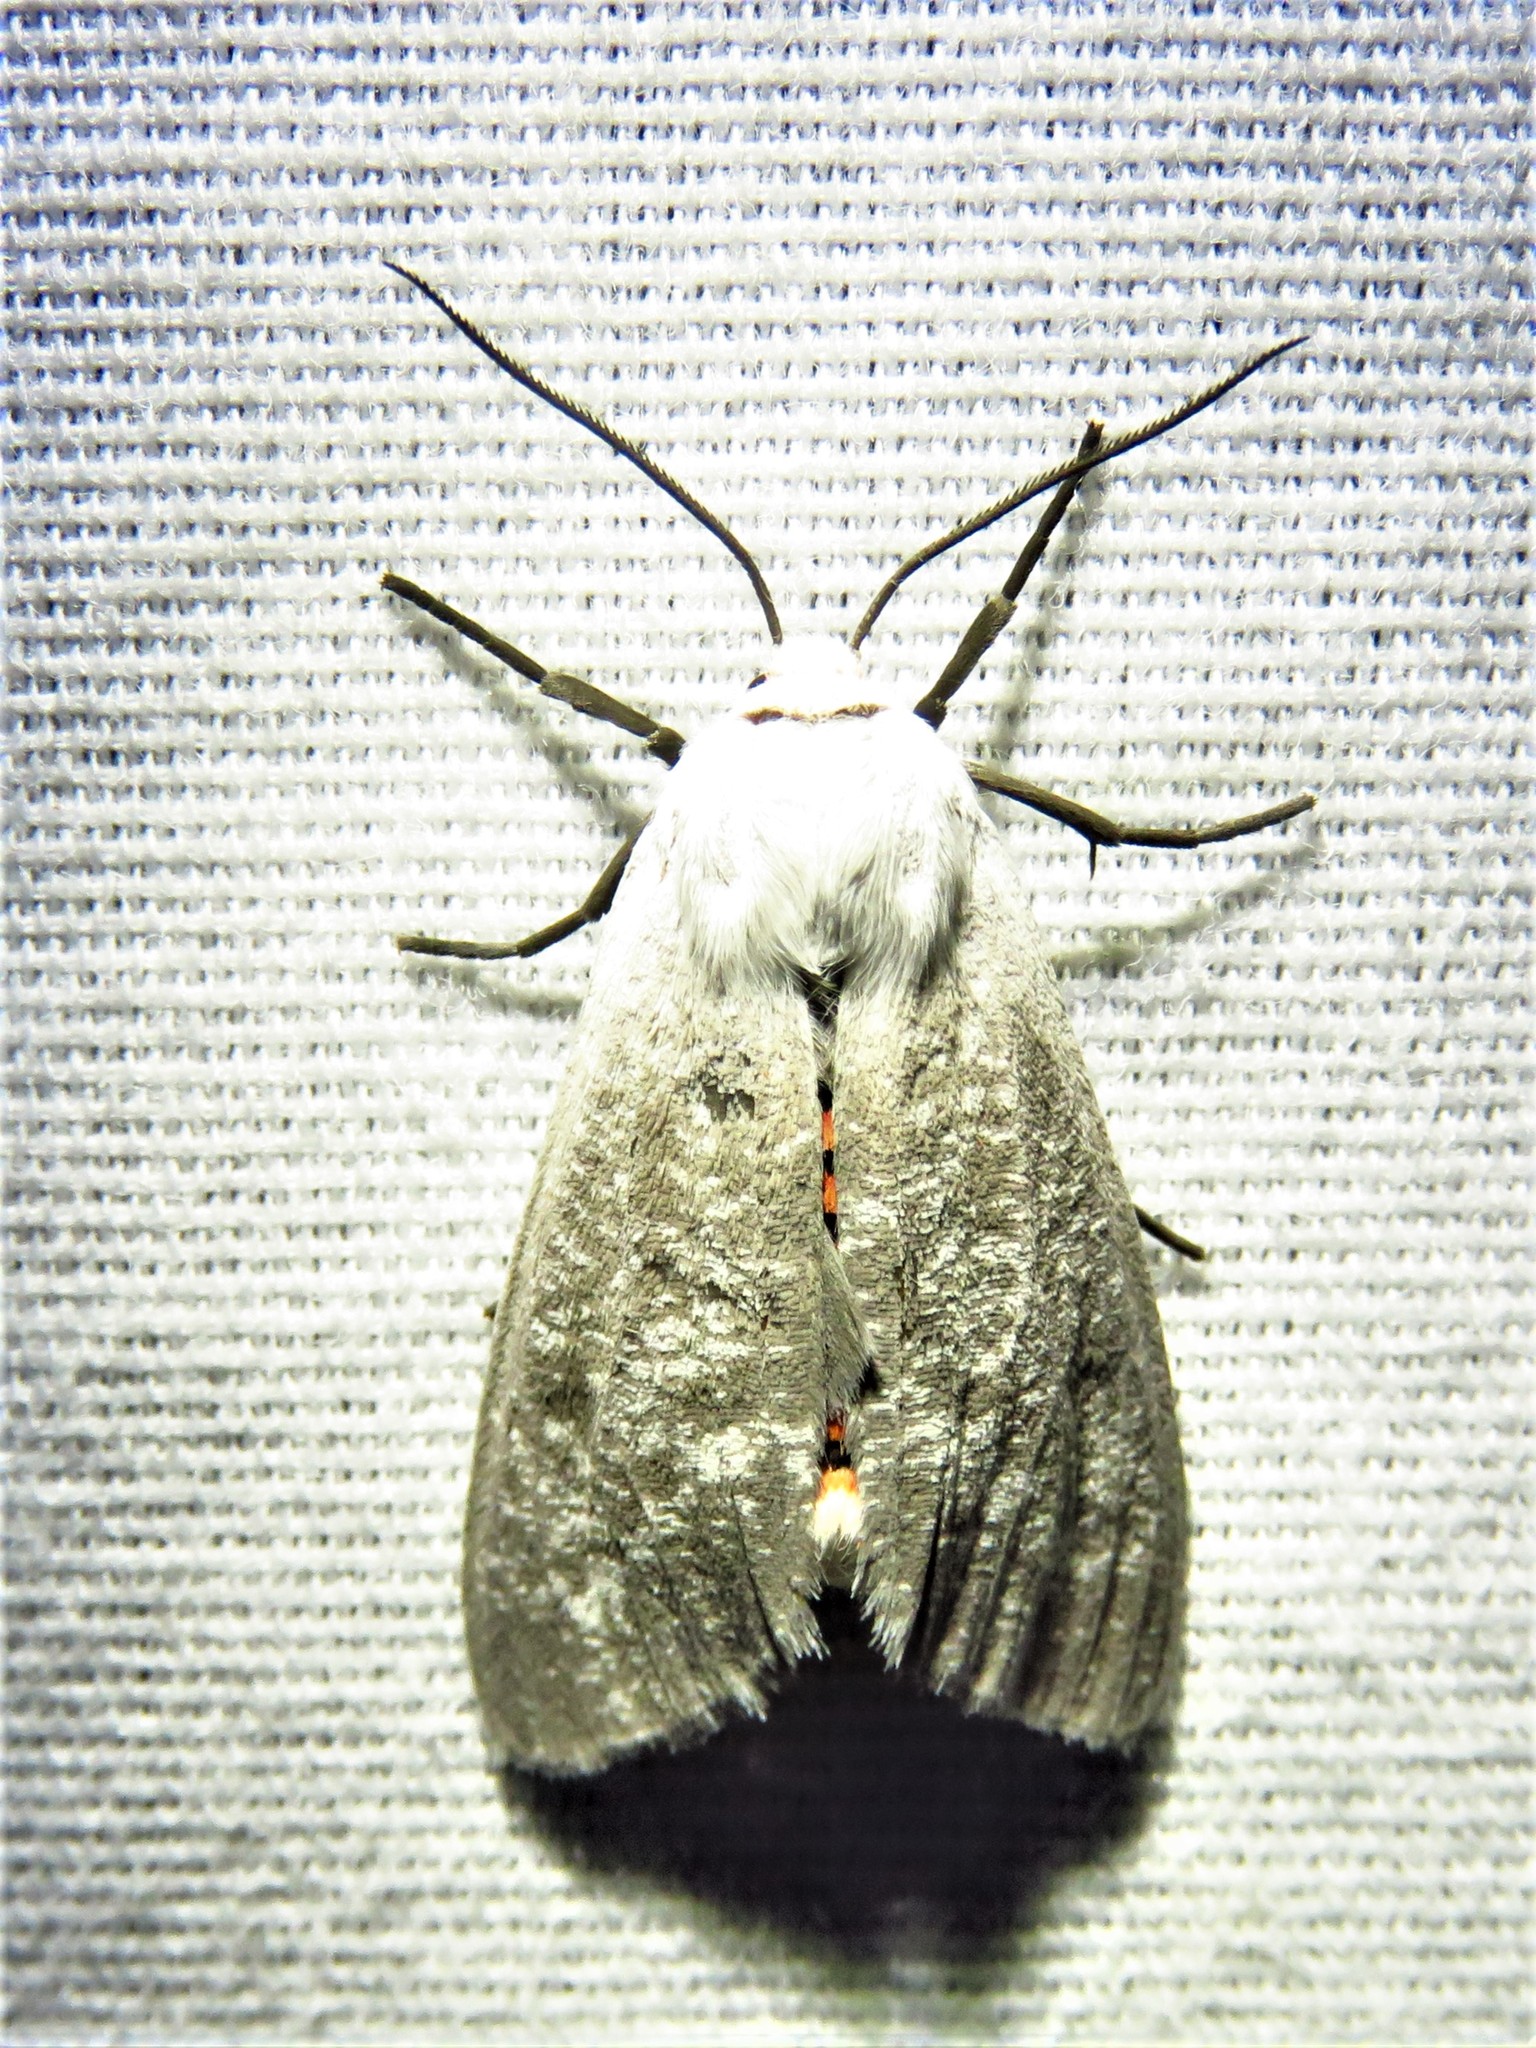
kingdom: Animalia
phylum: Arthropoda
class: Insecta
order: Lepidoptera
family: Erebidae
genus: Euchaetes
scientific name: Euchaetes bolteri
